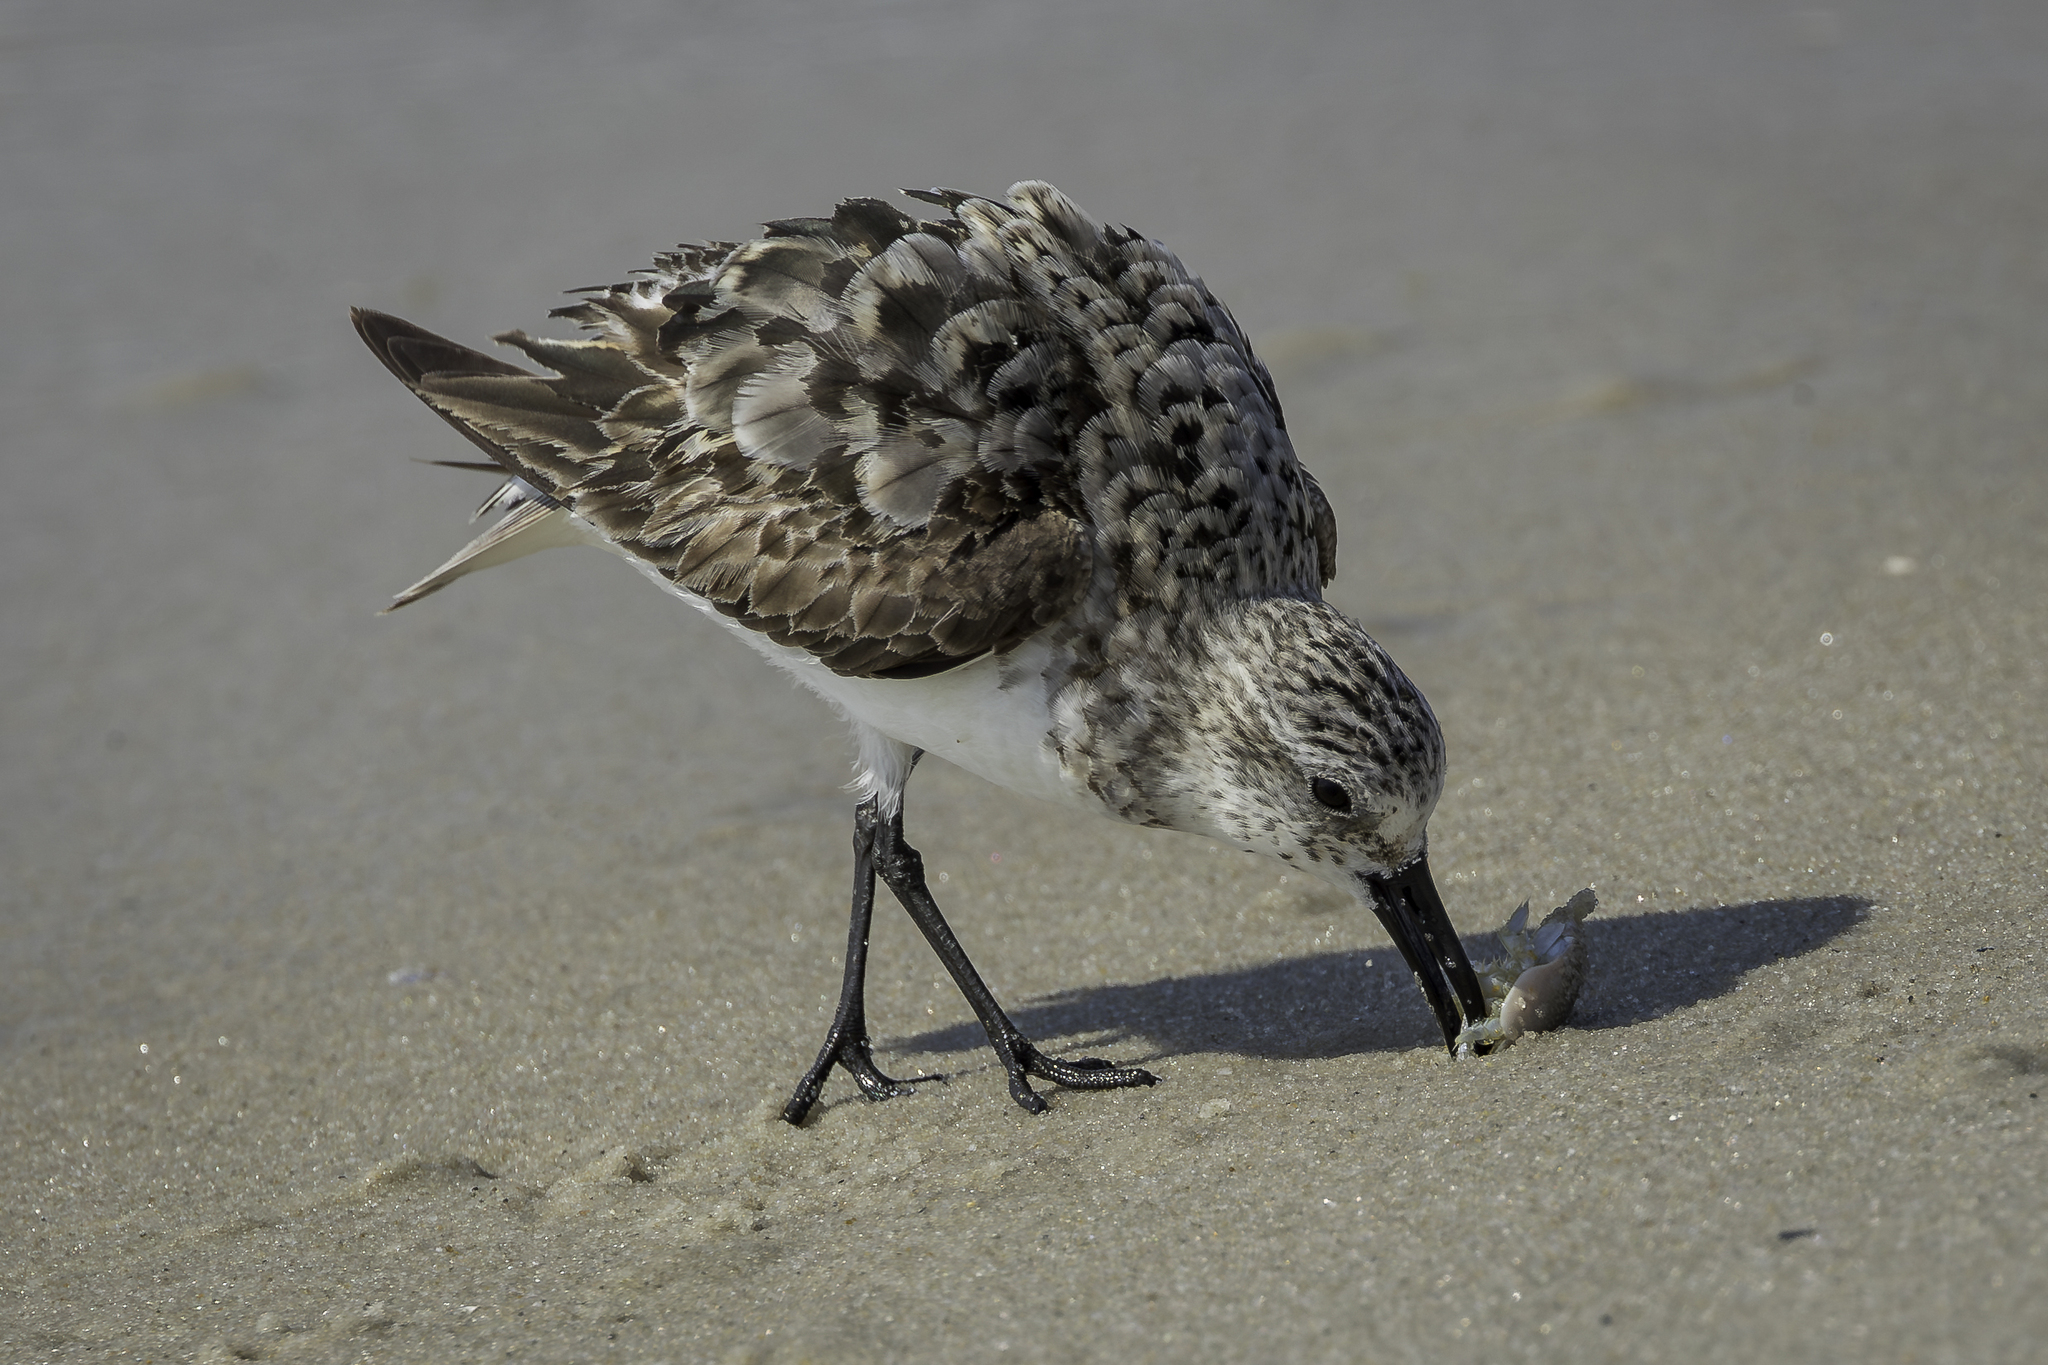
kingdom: Animalia
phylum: Chordata
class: Aves
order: Charadriiformes
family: Scolopacidae
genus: Calidris
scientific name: Calidris alba
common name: Sanderling
